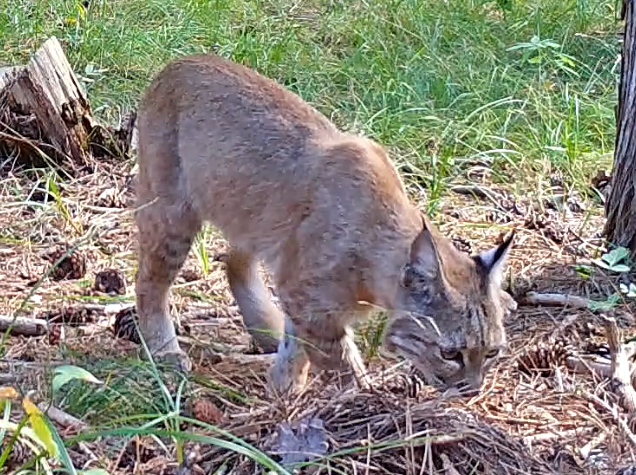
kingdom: Animalia
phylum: Chordata
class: Mammalia
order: Carnivora
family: Felidae
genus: Lynx
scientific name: Lynx rufus
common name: Bobcat
